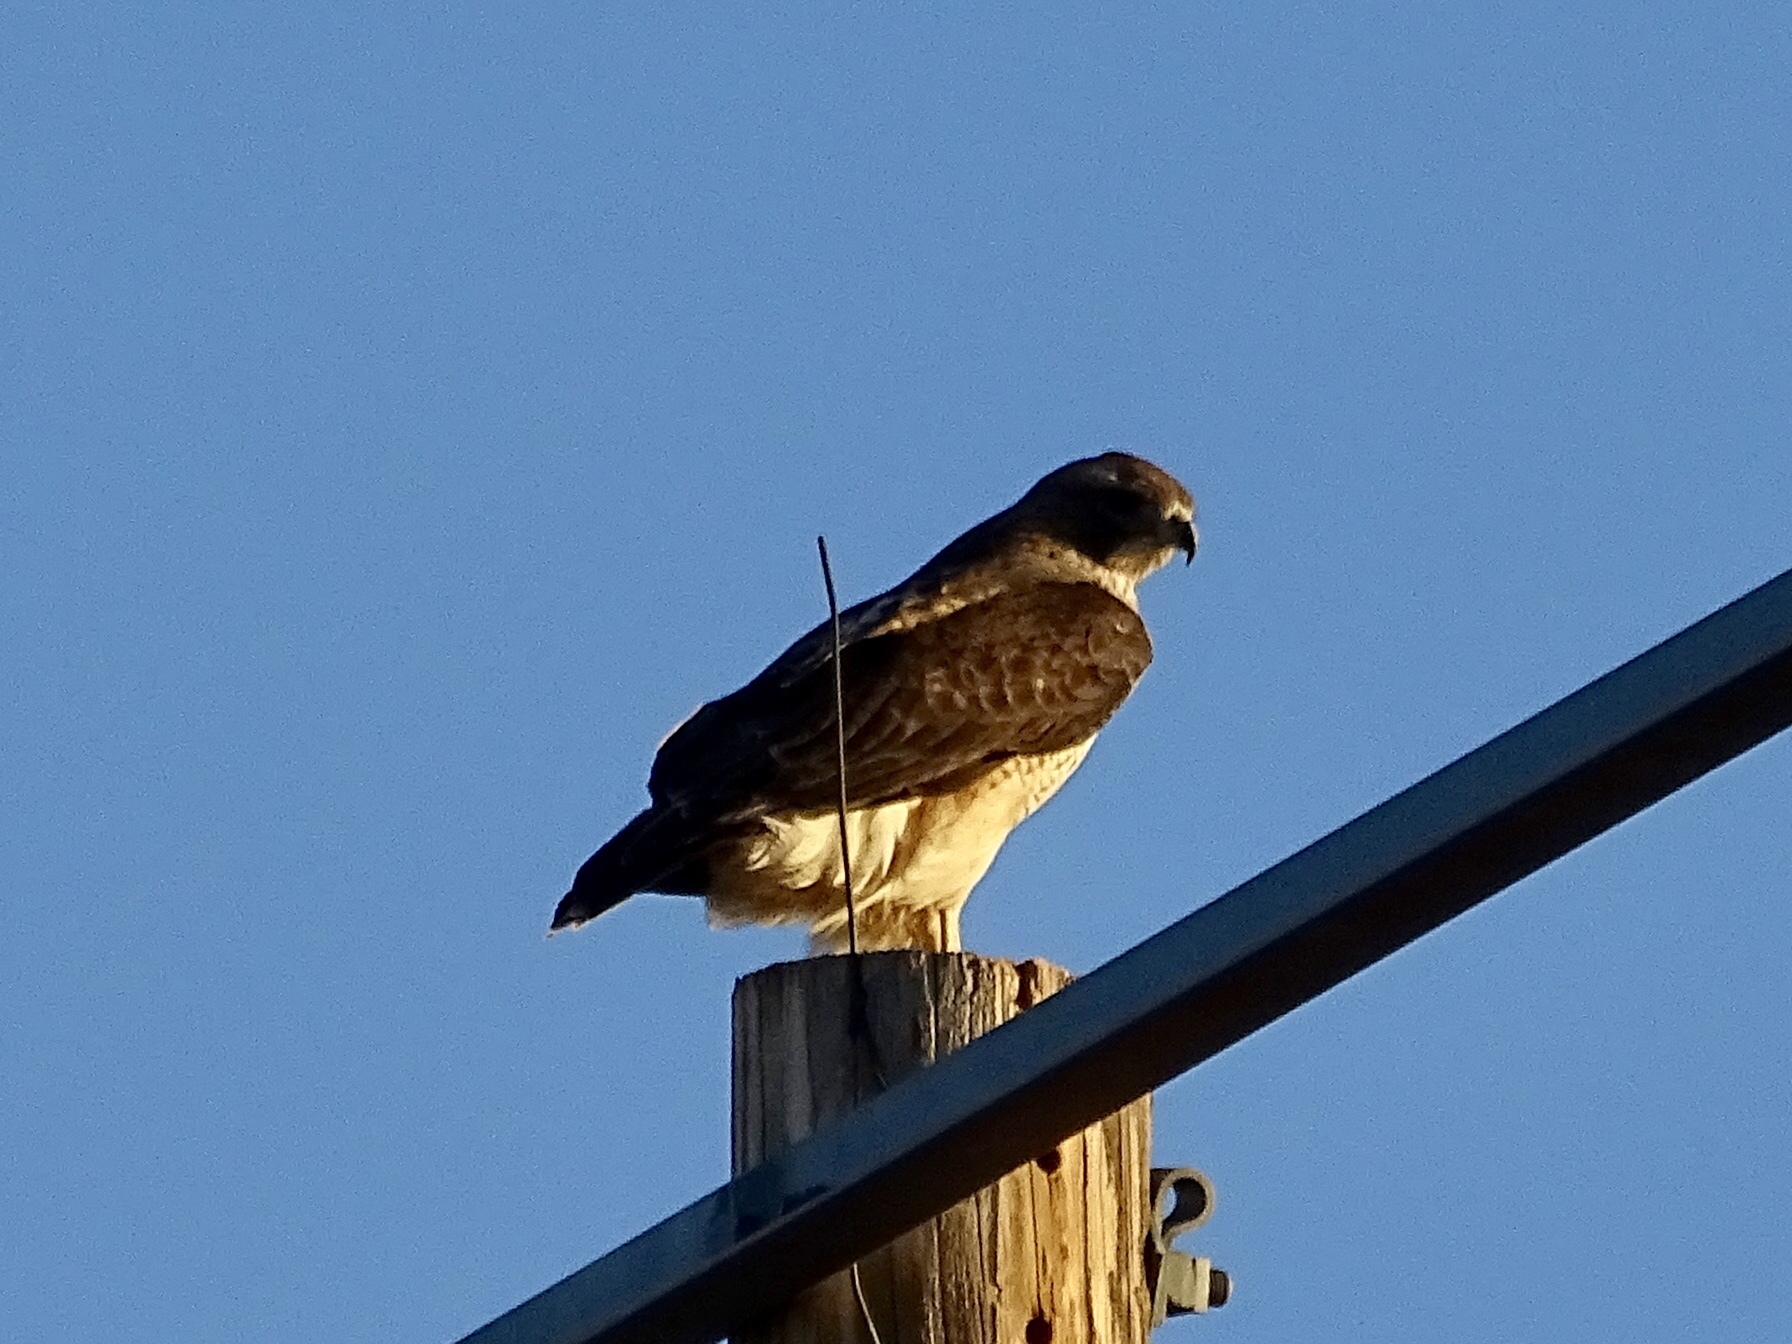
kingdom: Animalia
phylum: Chordata
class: Aves
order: Accipitriformes
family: Accipitridae
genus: Buteo
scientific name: Buteo jamaicensis
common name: Red-tailed hawk
